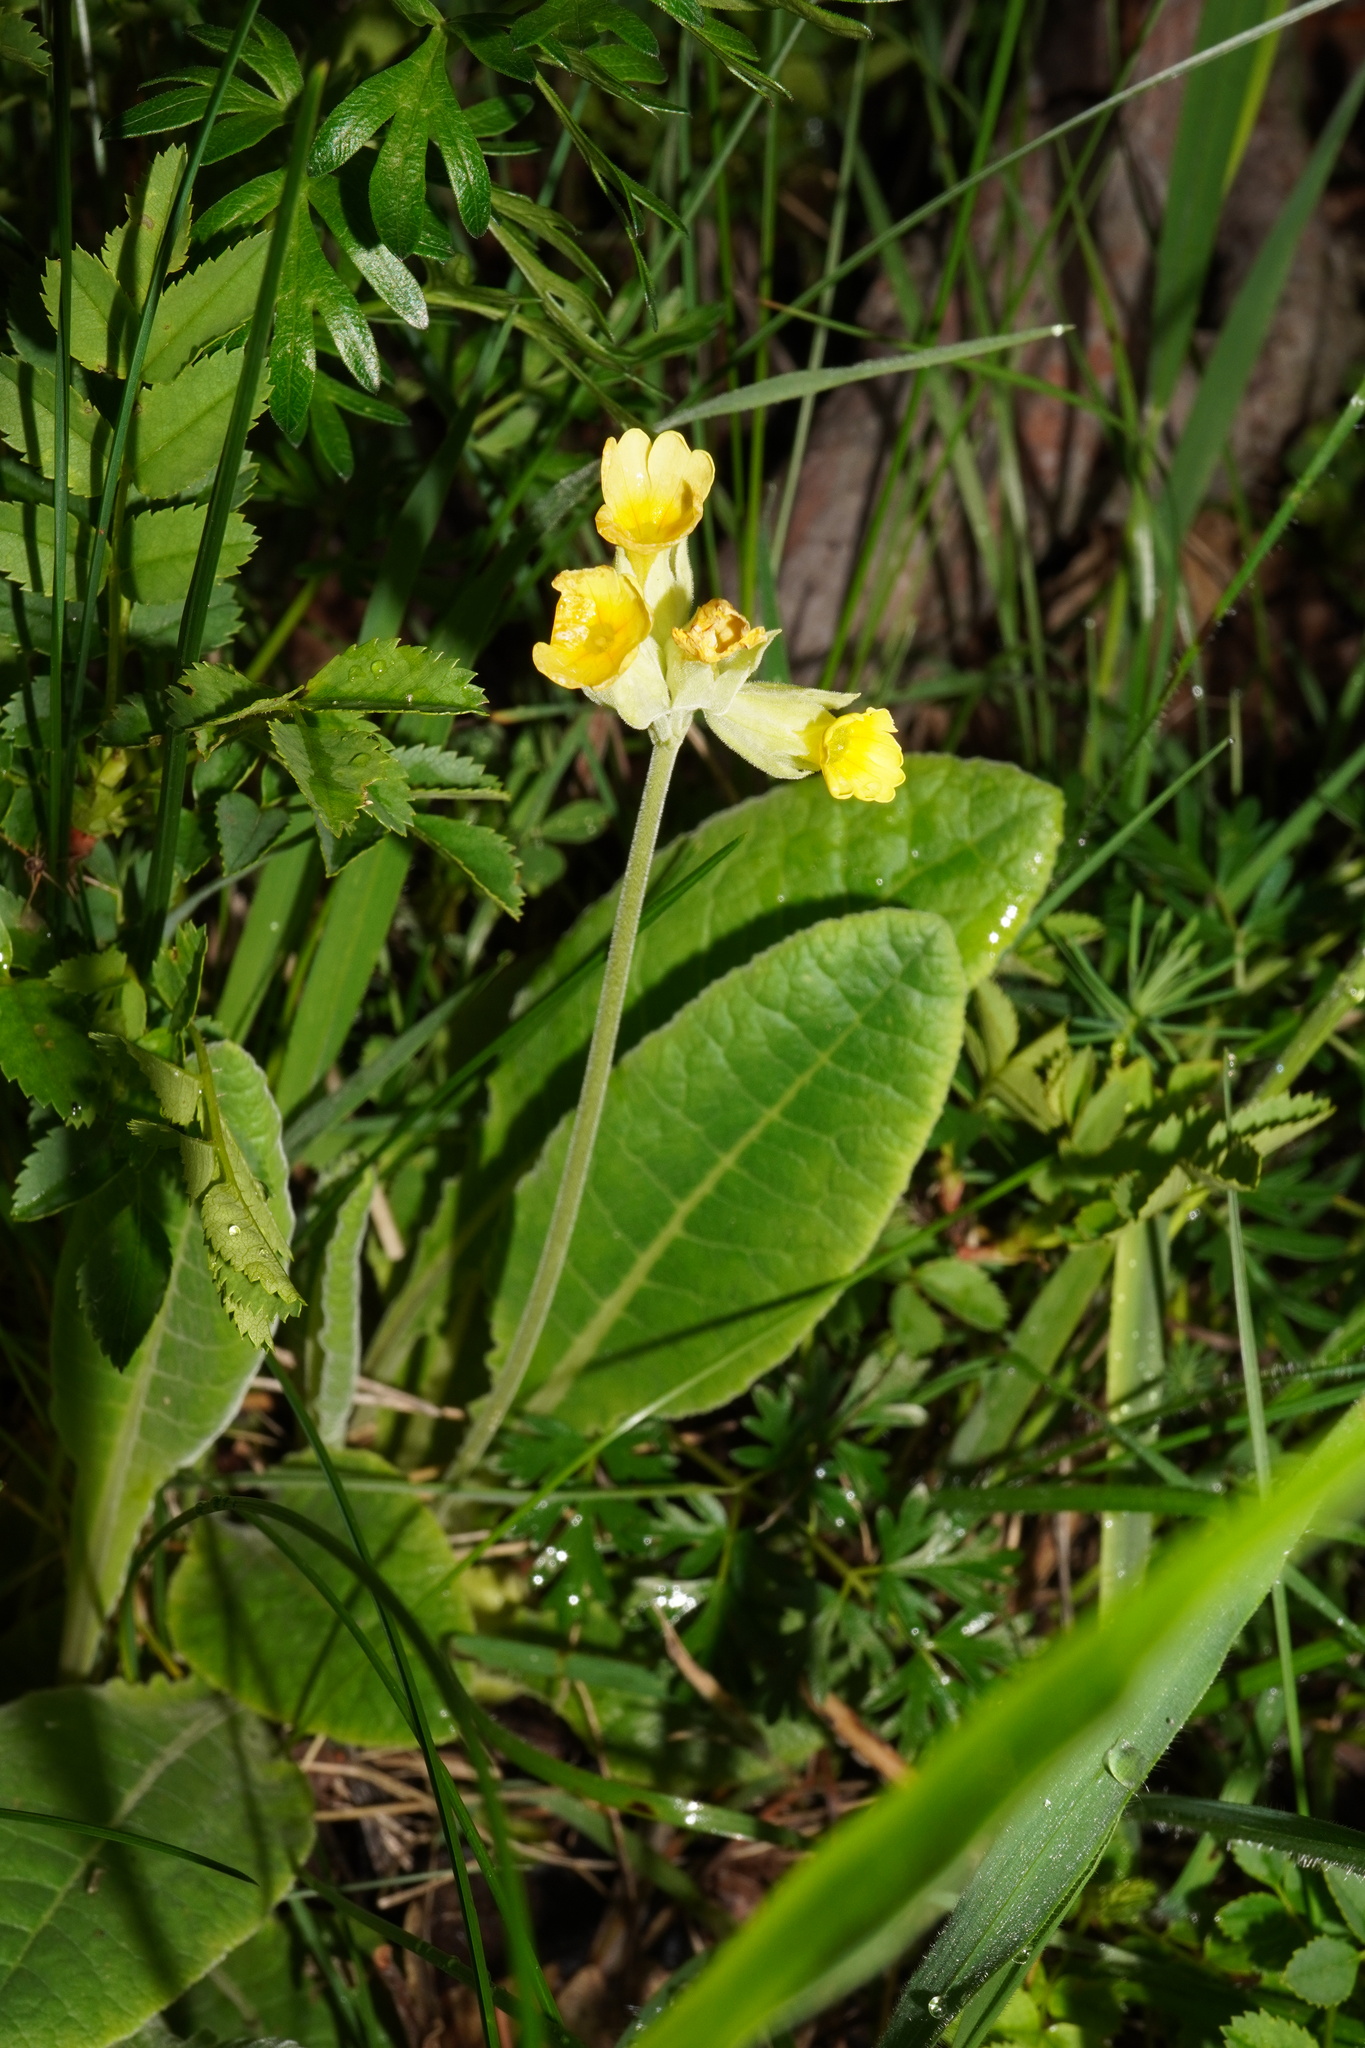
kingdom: Plantae
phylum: Tracheophyta
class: Magnoliopsida
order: Ericales
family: Primulaceae
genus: Primula
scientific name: Primula veris
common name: Cowslip
